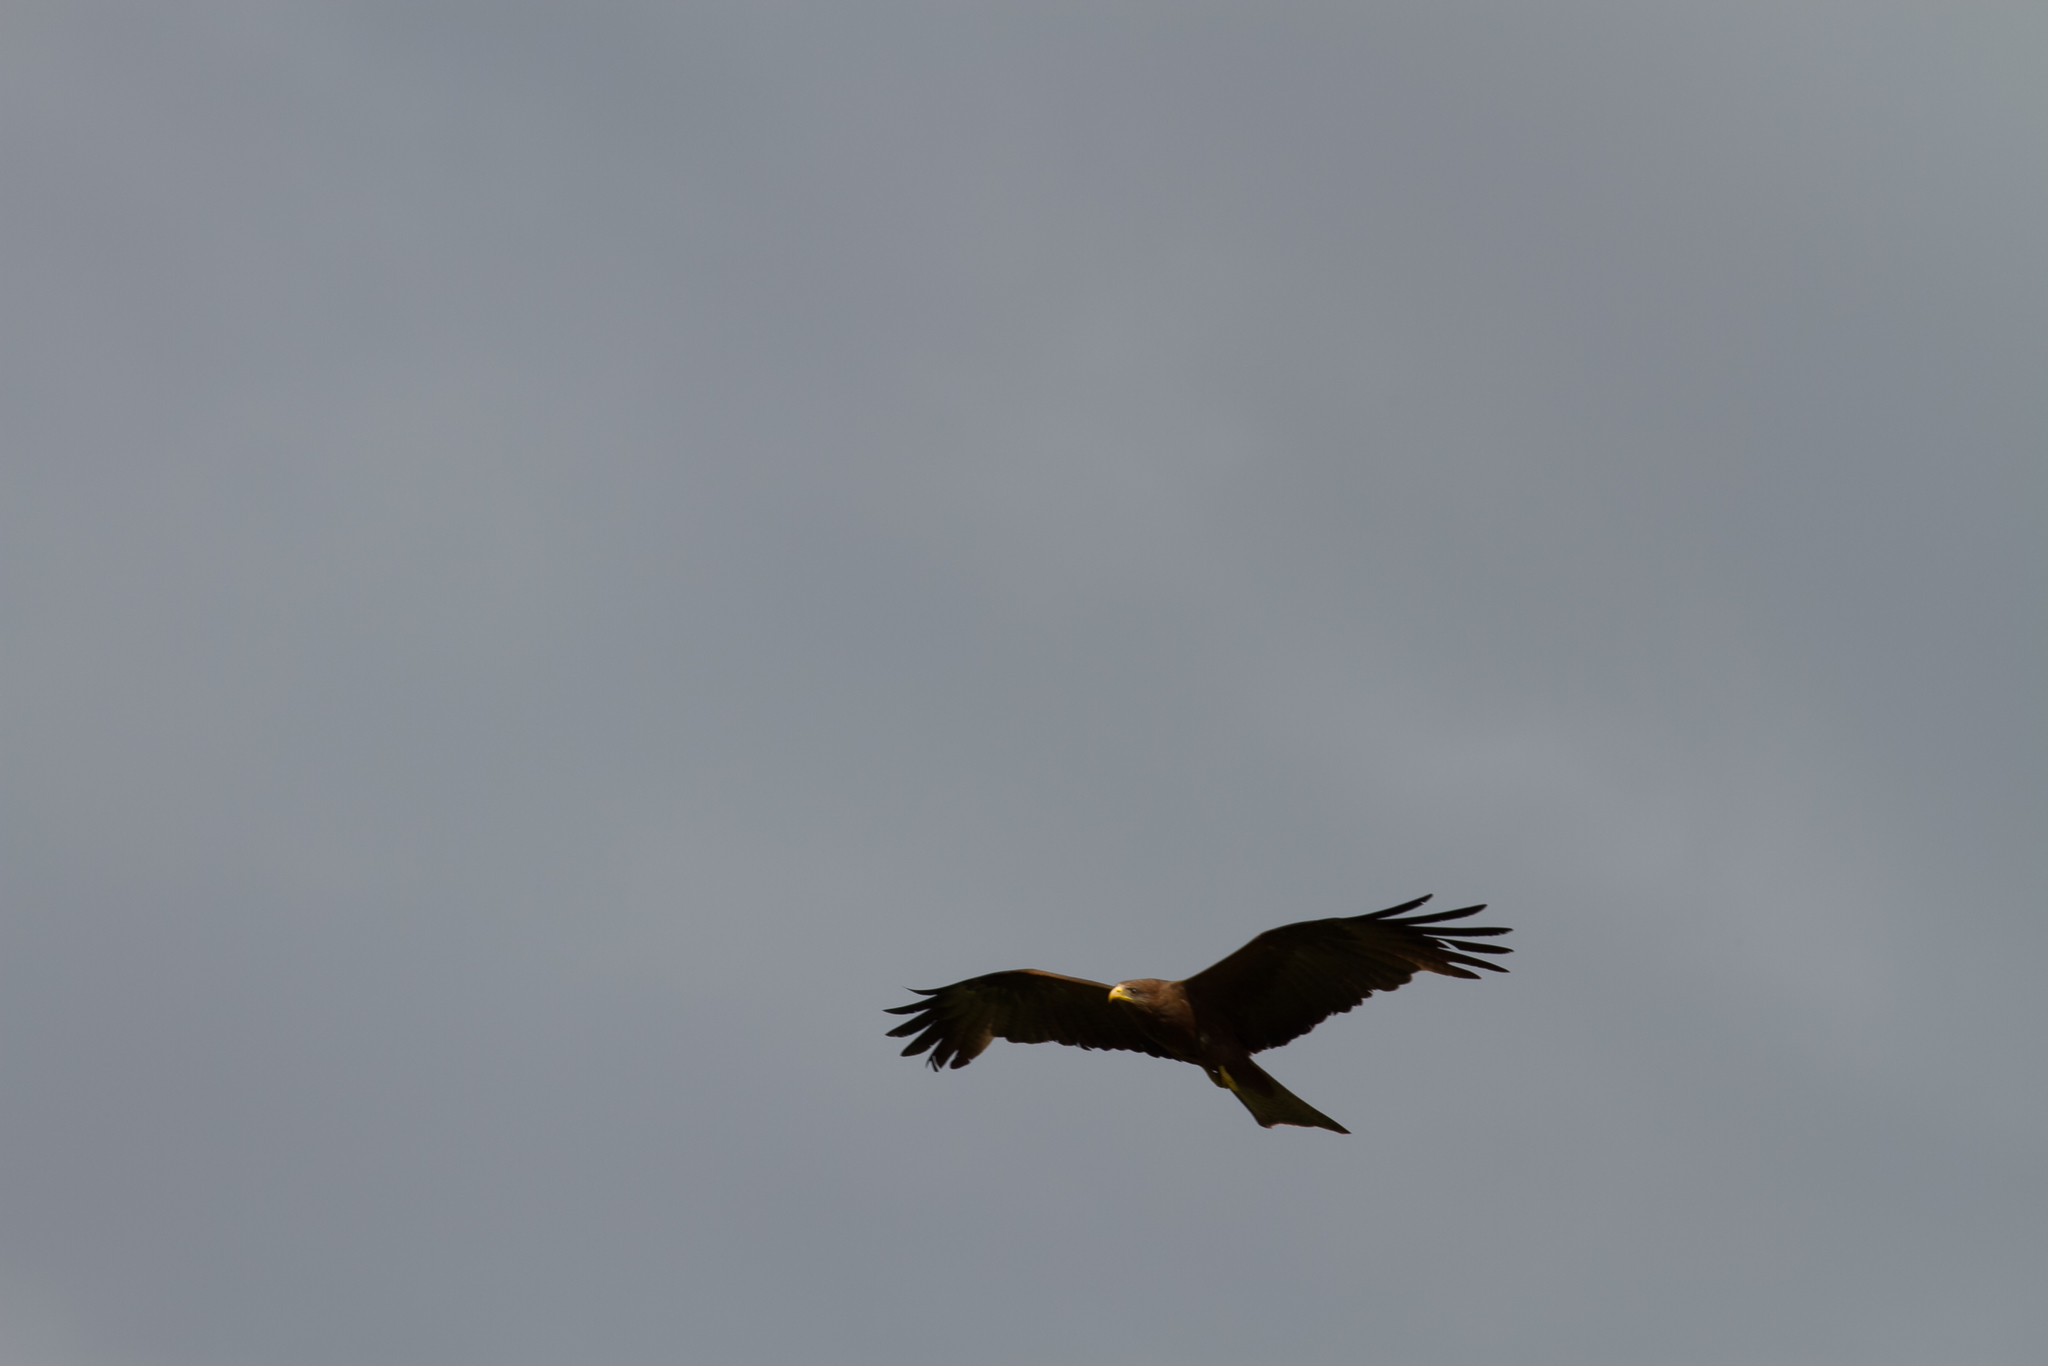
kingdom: Animalia
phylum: Chordata
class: Aves
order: Accipitriformes
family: Accipitridae
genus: Milvus
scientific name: Milvus migrans
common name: Black kite
